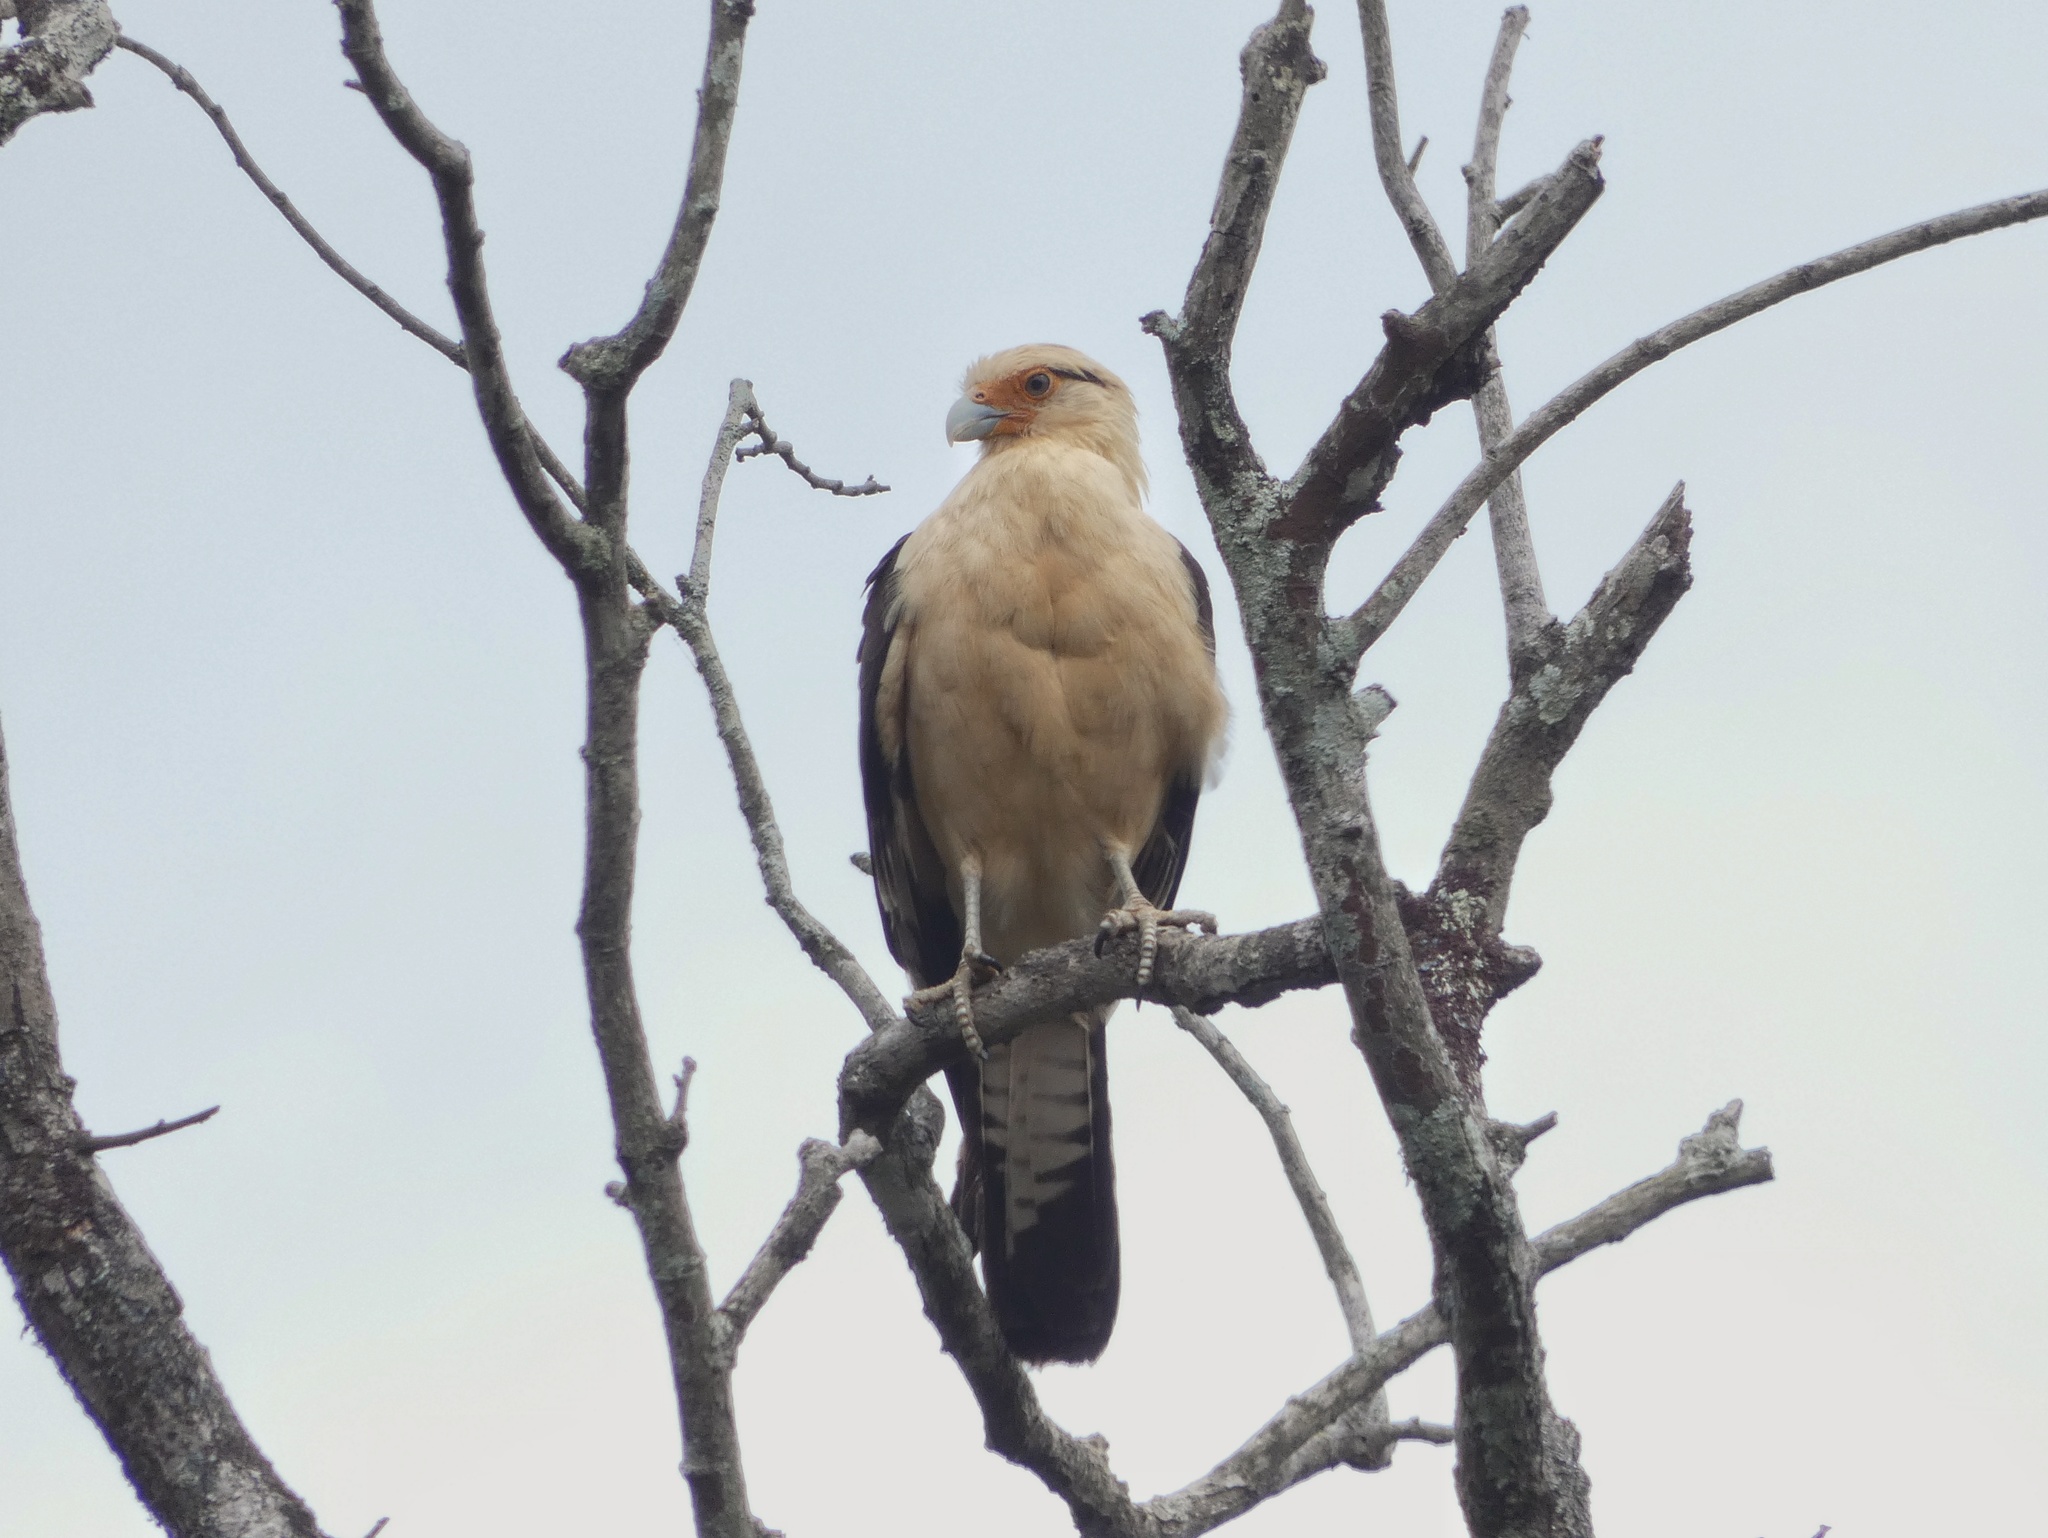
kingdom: Animalia
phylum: Chordata
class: Aves
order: Falconiformes
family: Falconidae
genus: Daptrius
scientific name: Daptrius
